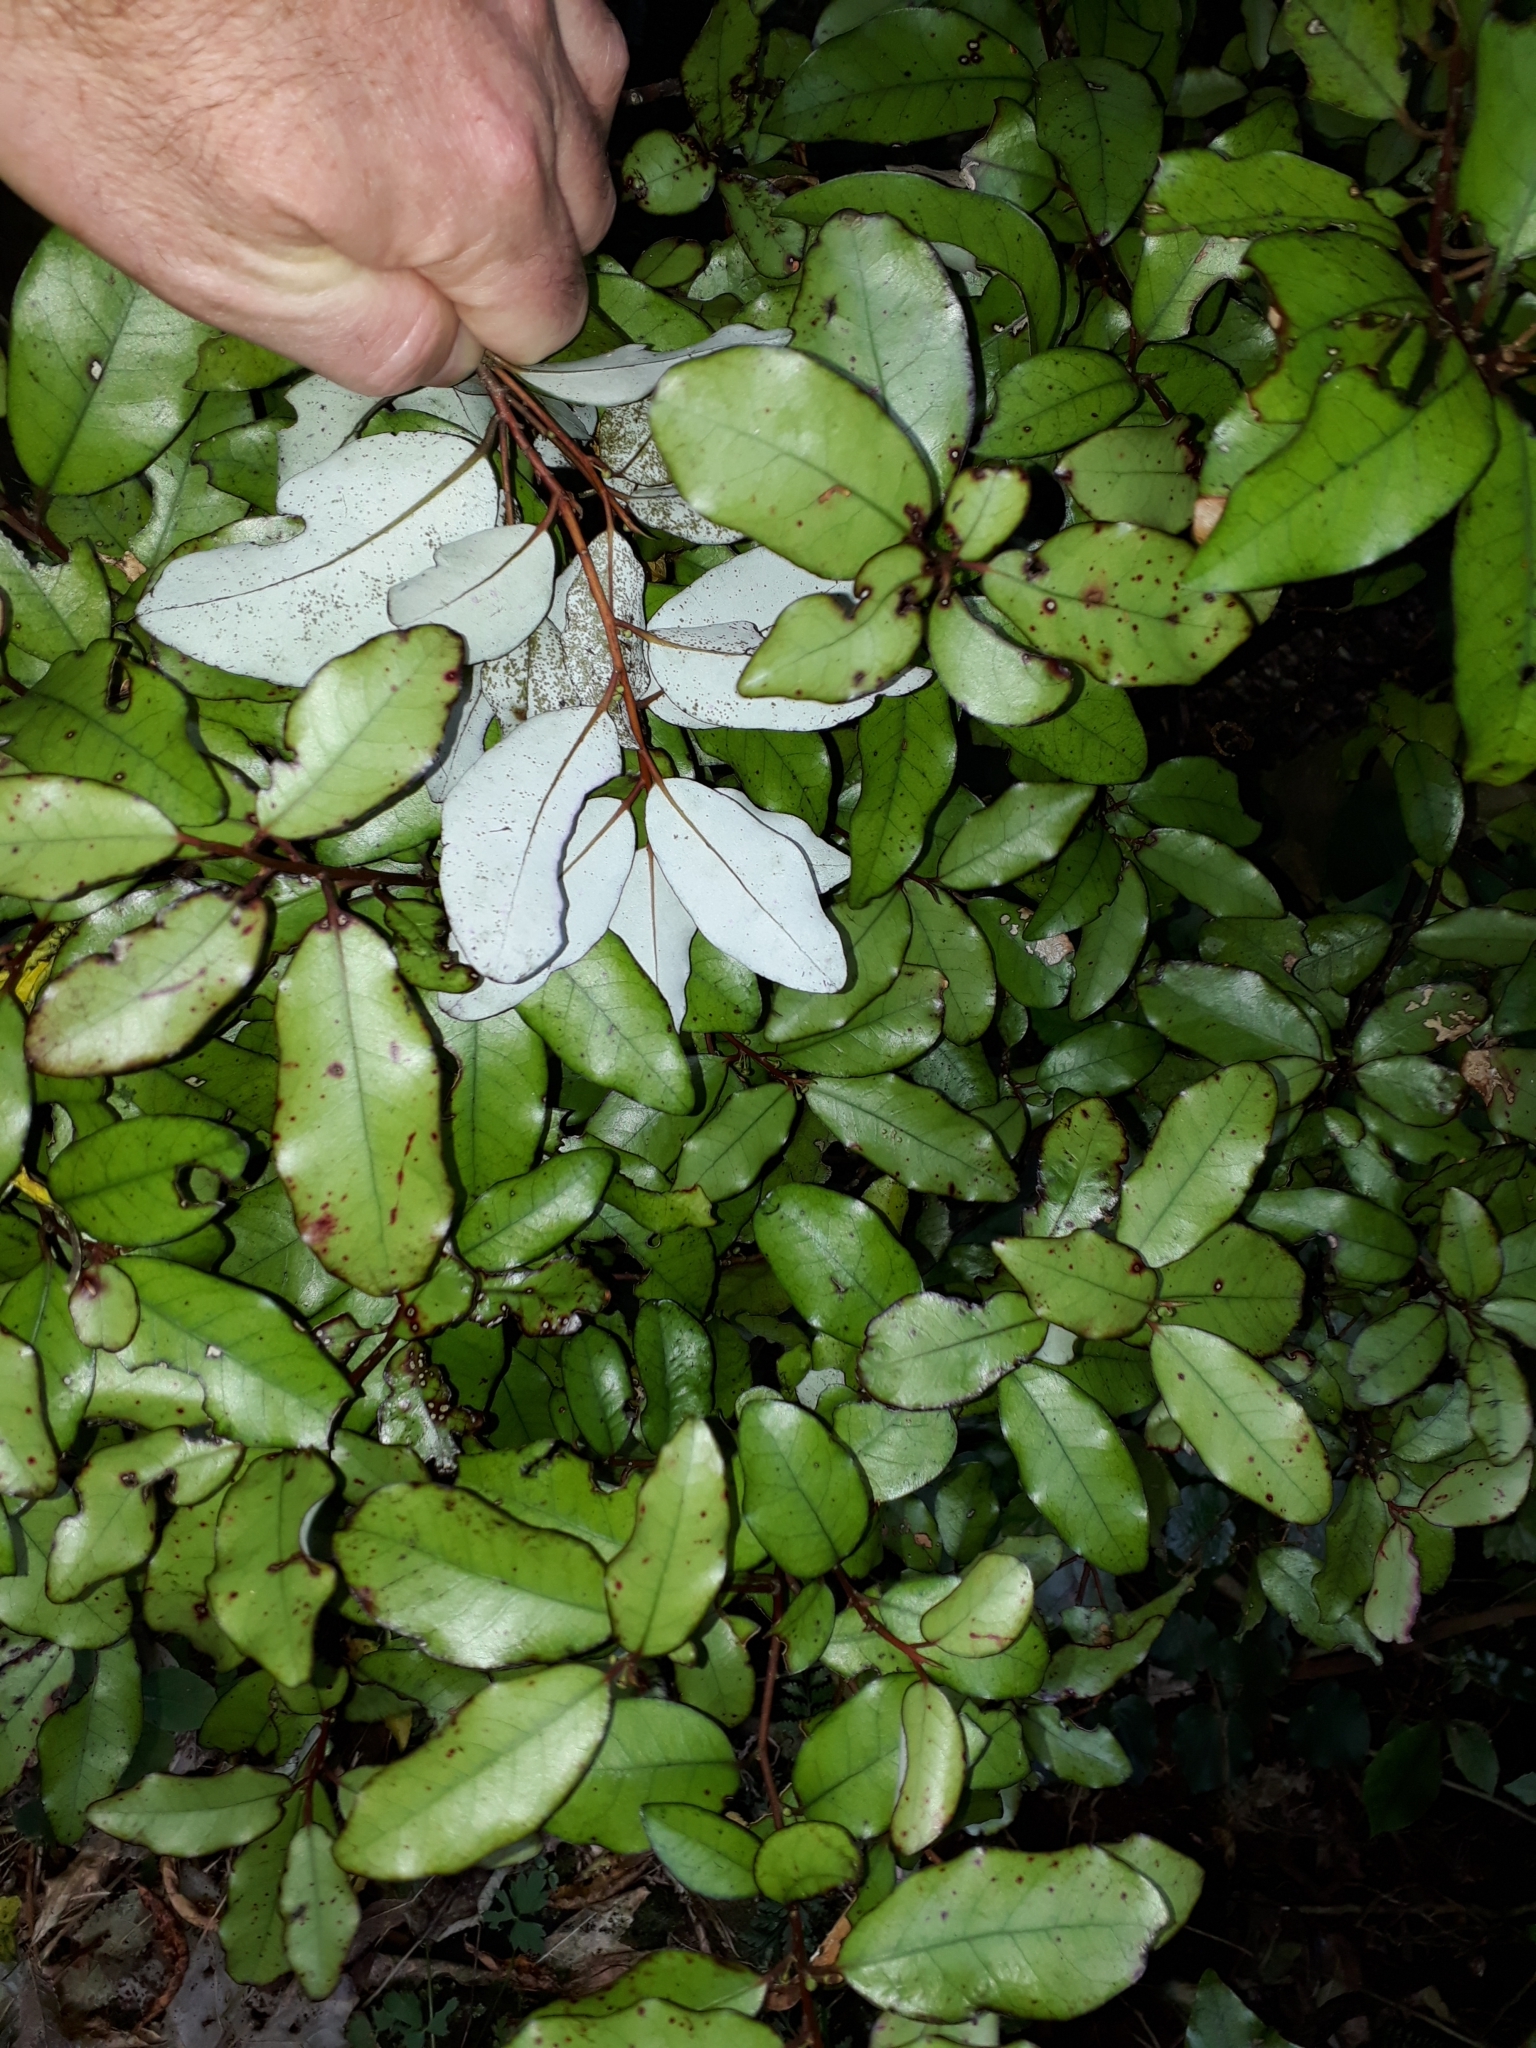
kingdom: Plantae
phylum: Tracheophyta
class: Magnoliopsida
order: Canellales
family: Winteraceae
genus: Pseudowintera
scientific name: Pseudowintera colorata
